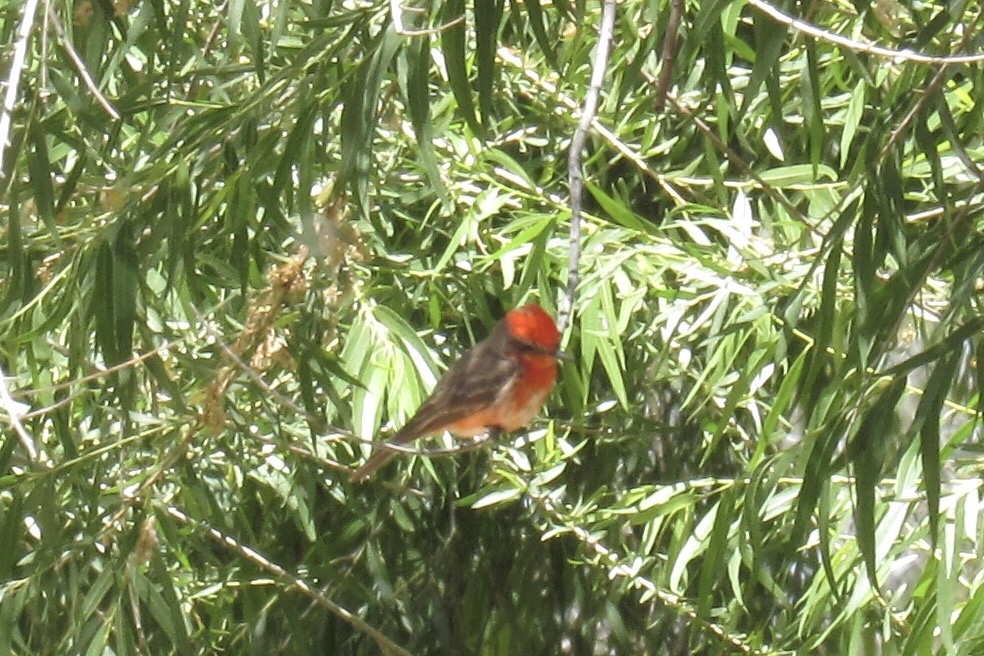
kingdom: Animalia
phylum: Chordata
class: Aves
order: Passeriformes
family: Tyrannidae
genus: Pyrocephalus
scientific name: Pyrocephalus rubinus
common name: Vermilion flycatcher
